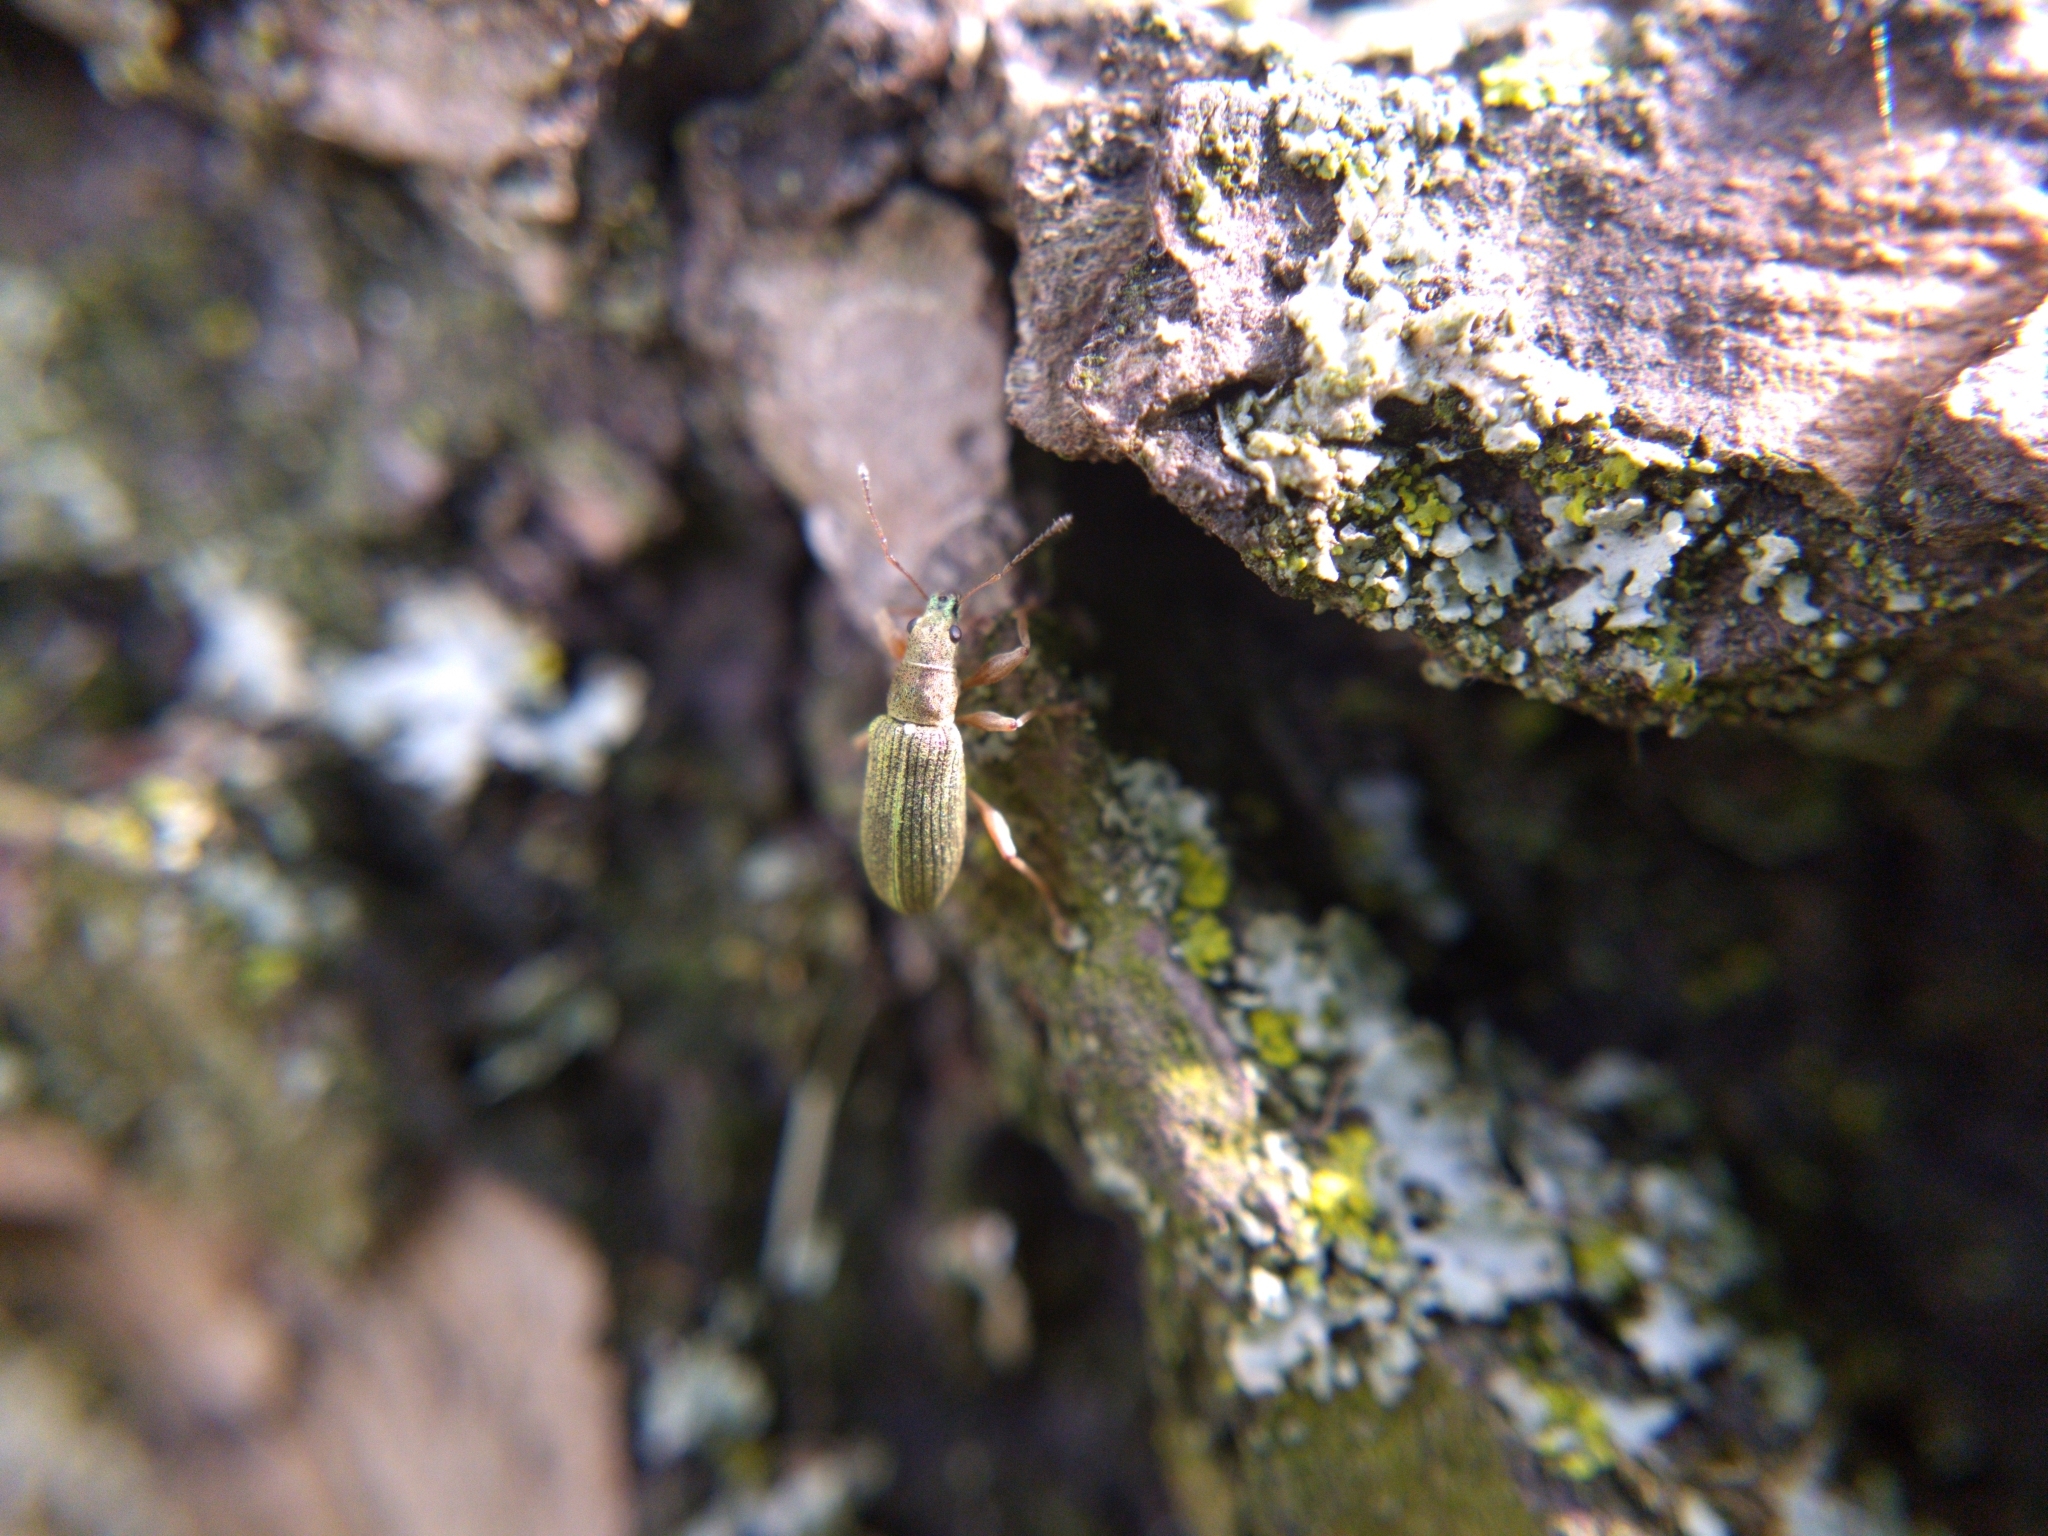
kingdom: Animalia
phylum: Arthropoda
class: Insecta
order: Coleoptera
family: Curculionidae
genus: Polydrusus
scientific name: Polydrusus impressifrons
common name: Weevil
